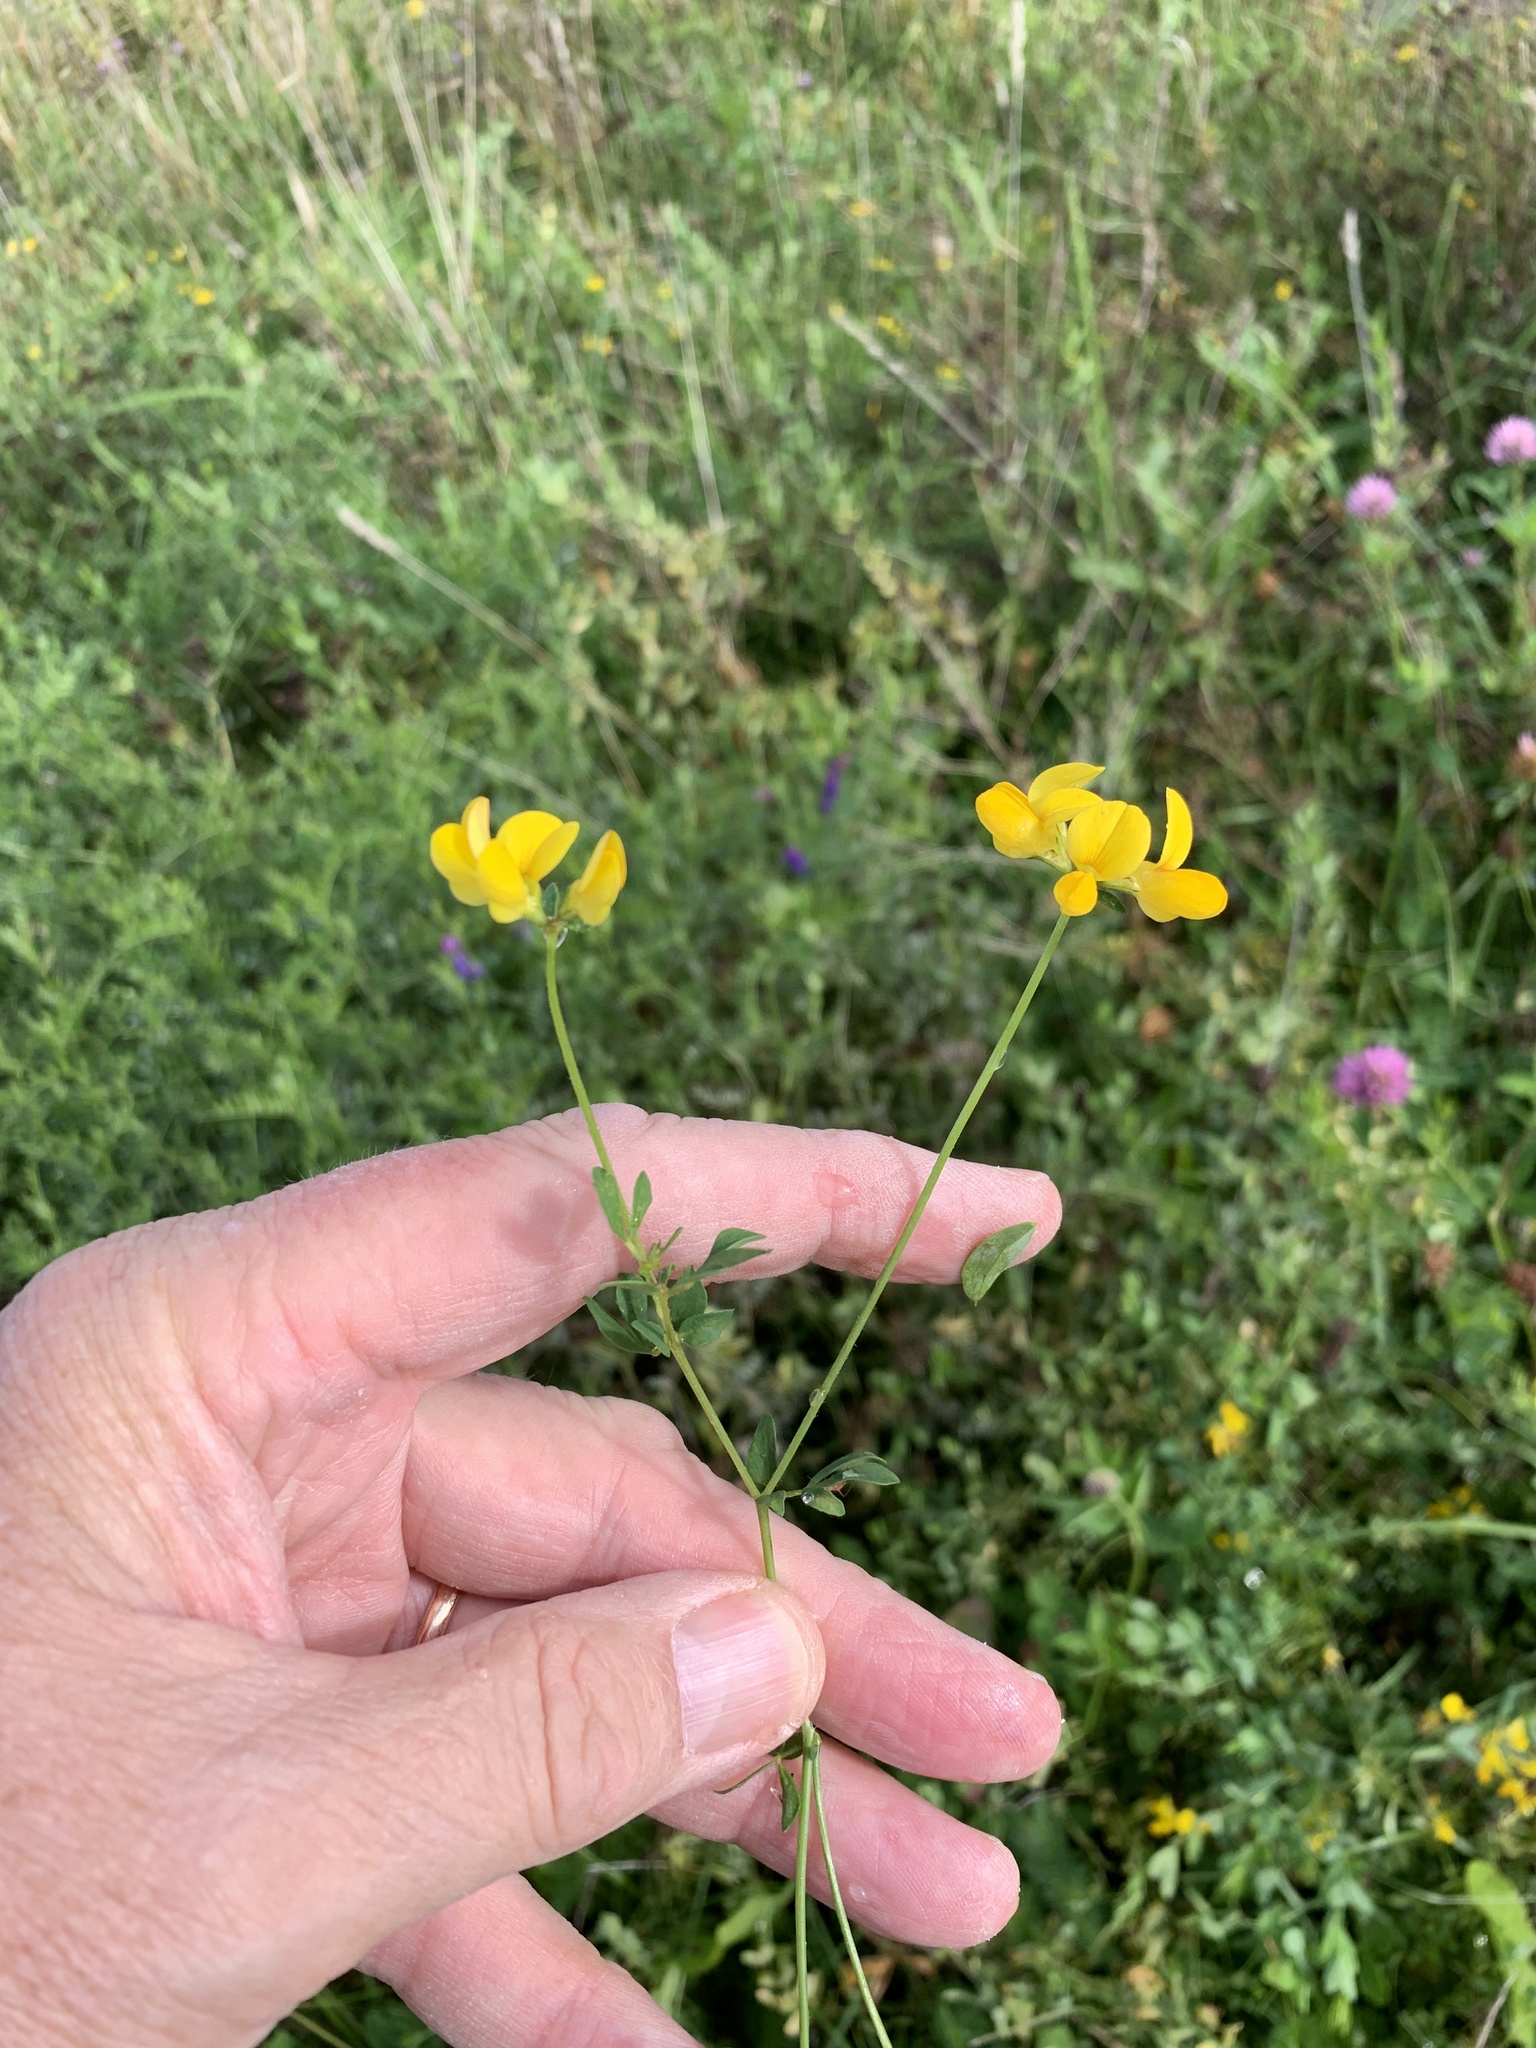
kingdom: Plantae
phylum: Tracheophyta
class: Magnoliopsida
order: Fabales
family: Fabaceae
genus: Lotus
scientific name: Lotus corniculatus
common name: Common bird's-foot-trefoil
